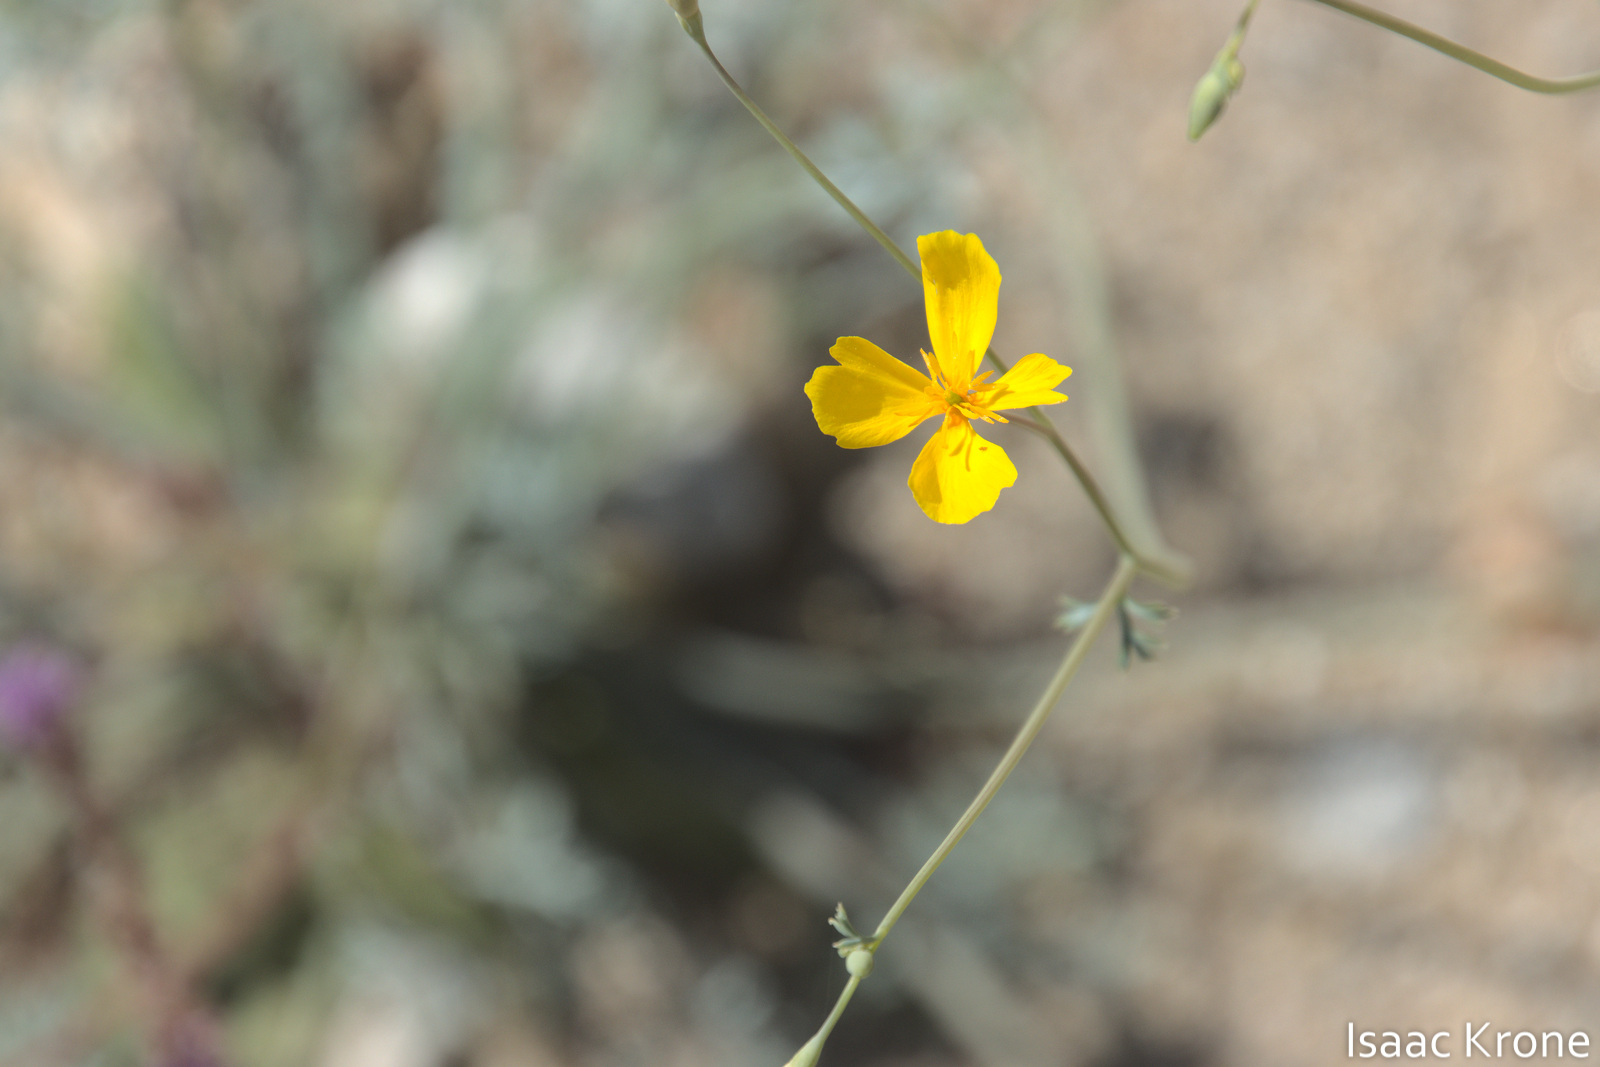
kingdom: Plantae
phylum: Tracheophyta
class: Magnoliopsida
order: Ranunculales
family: Papaveraceae
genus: Eschscholzia
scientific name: Eschscholzia minutiflora
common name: Small-flower california-poppy
